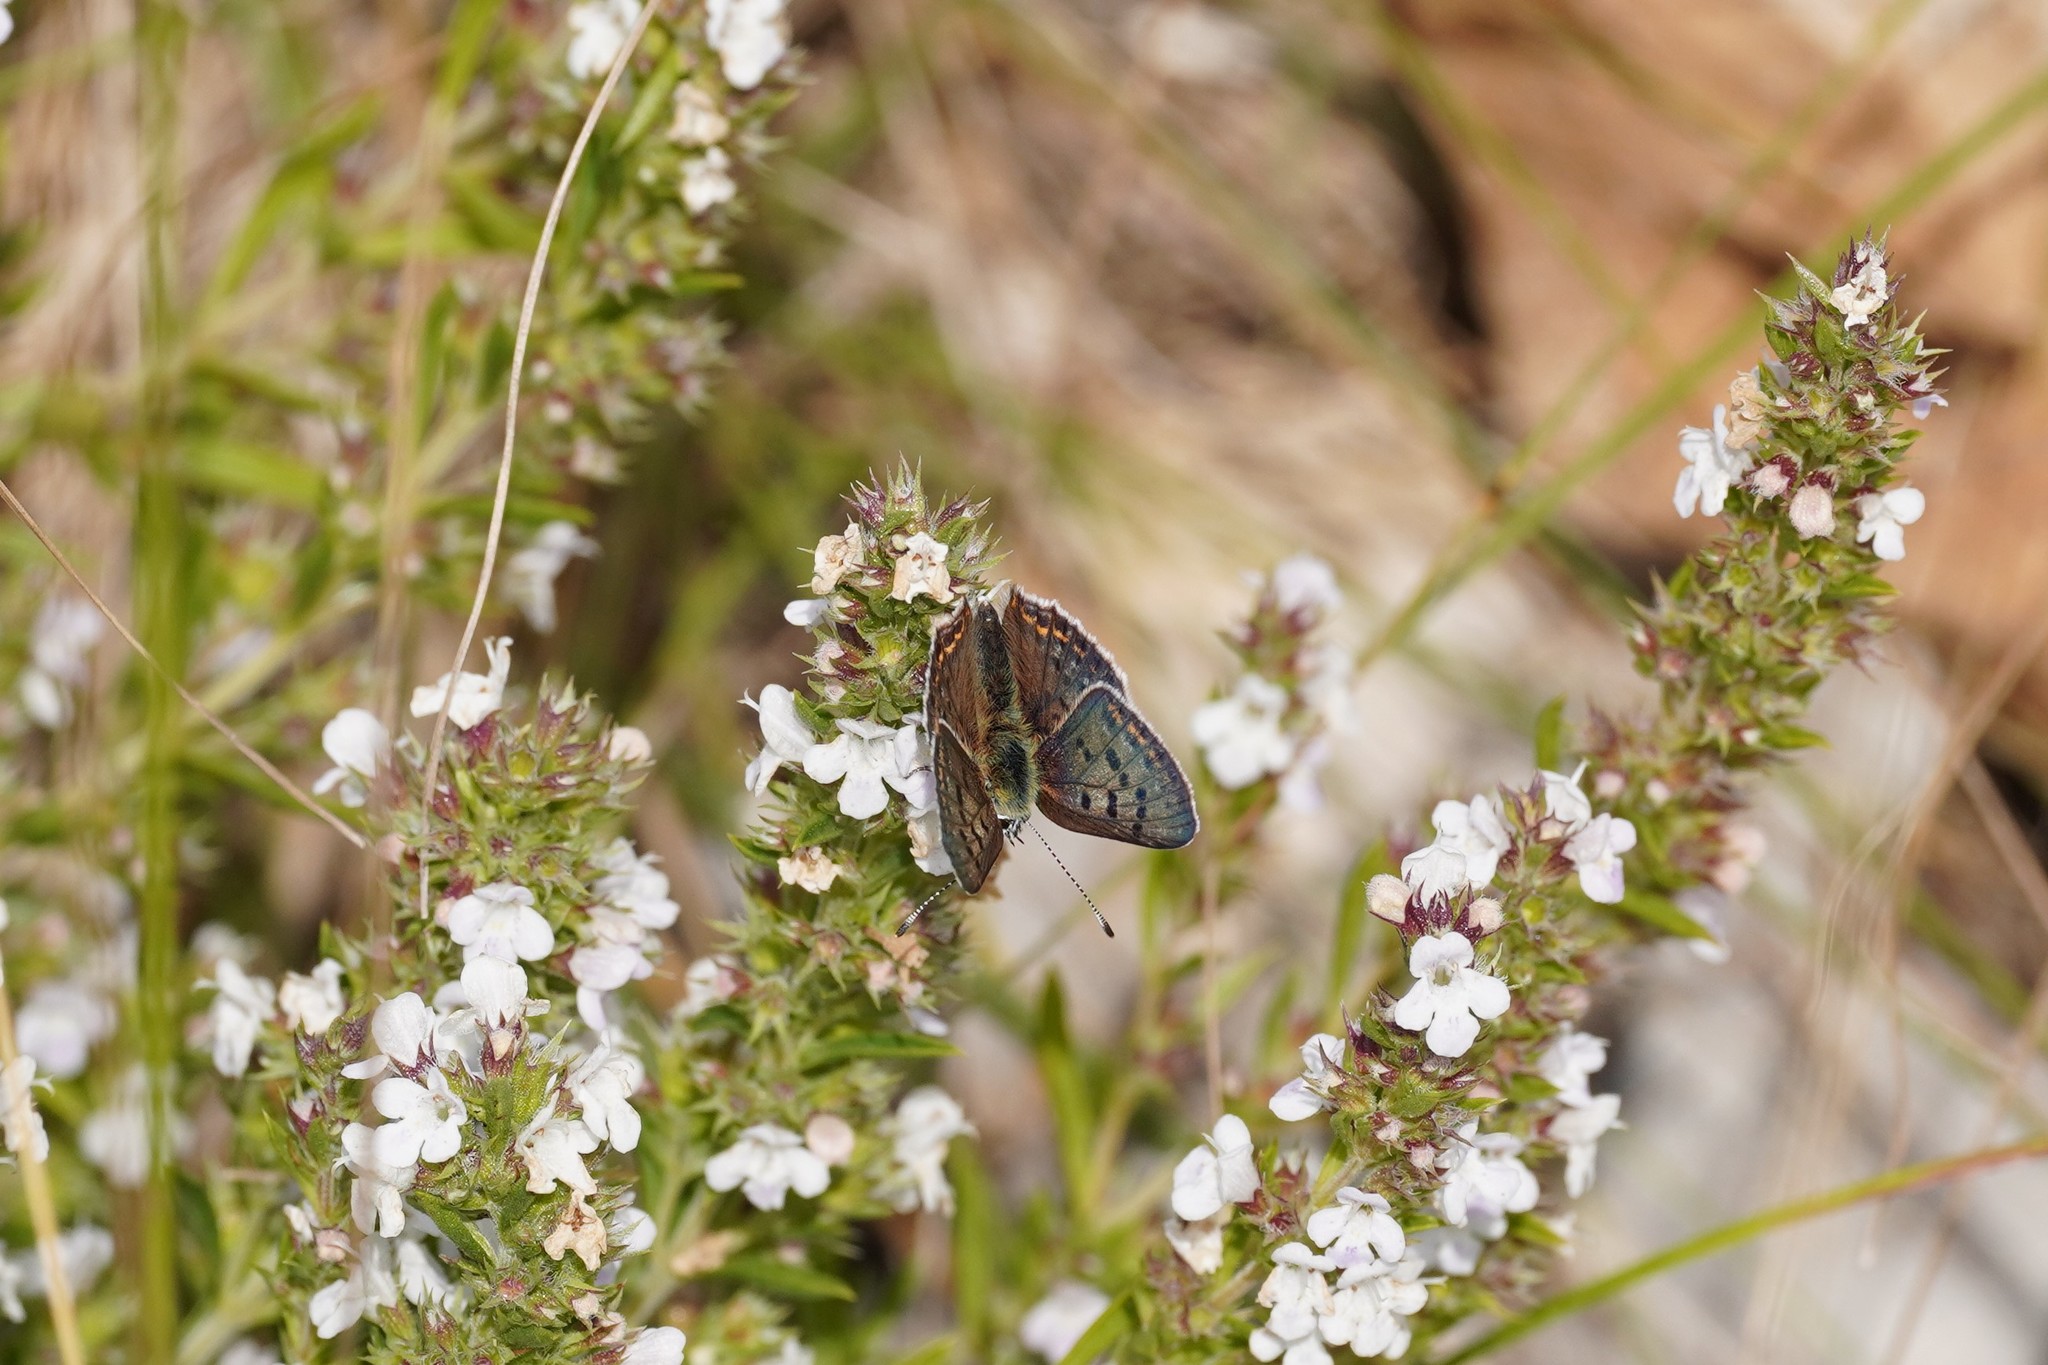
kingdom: Animalia
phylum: Arthropoda
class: Insecta
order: Lepidoptera
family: Lycaenidae
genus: Loweia
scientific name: Loweia tityrus
